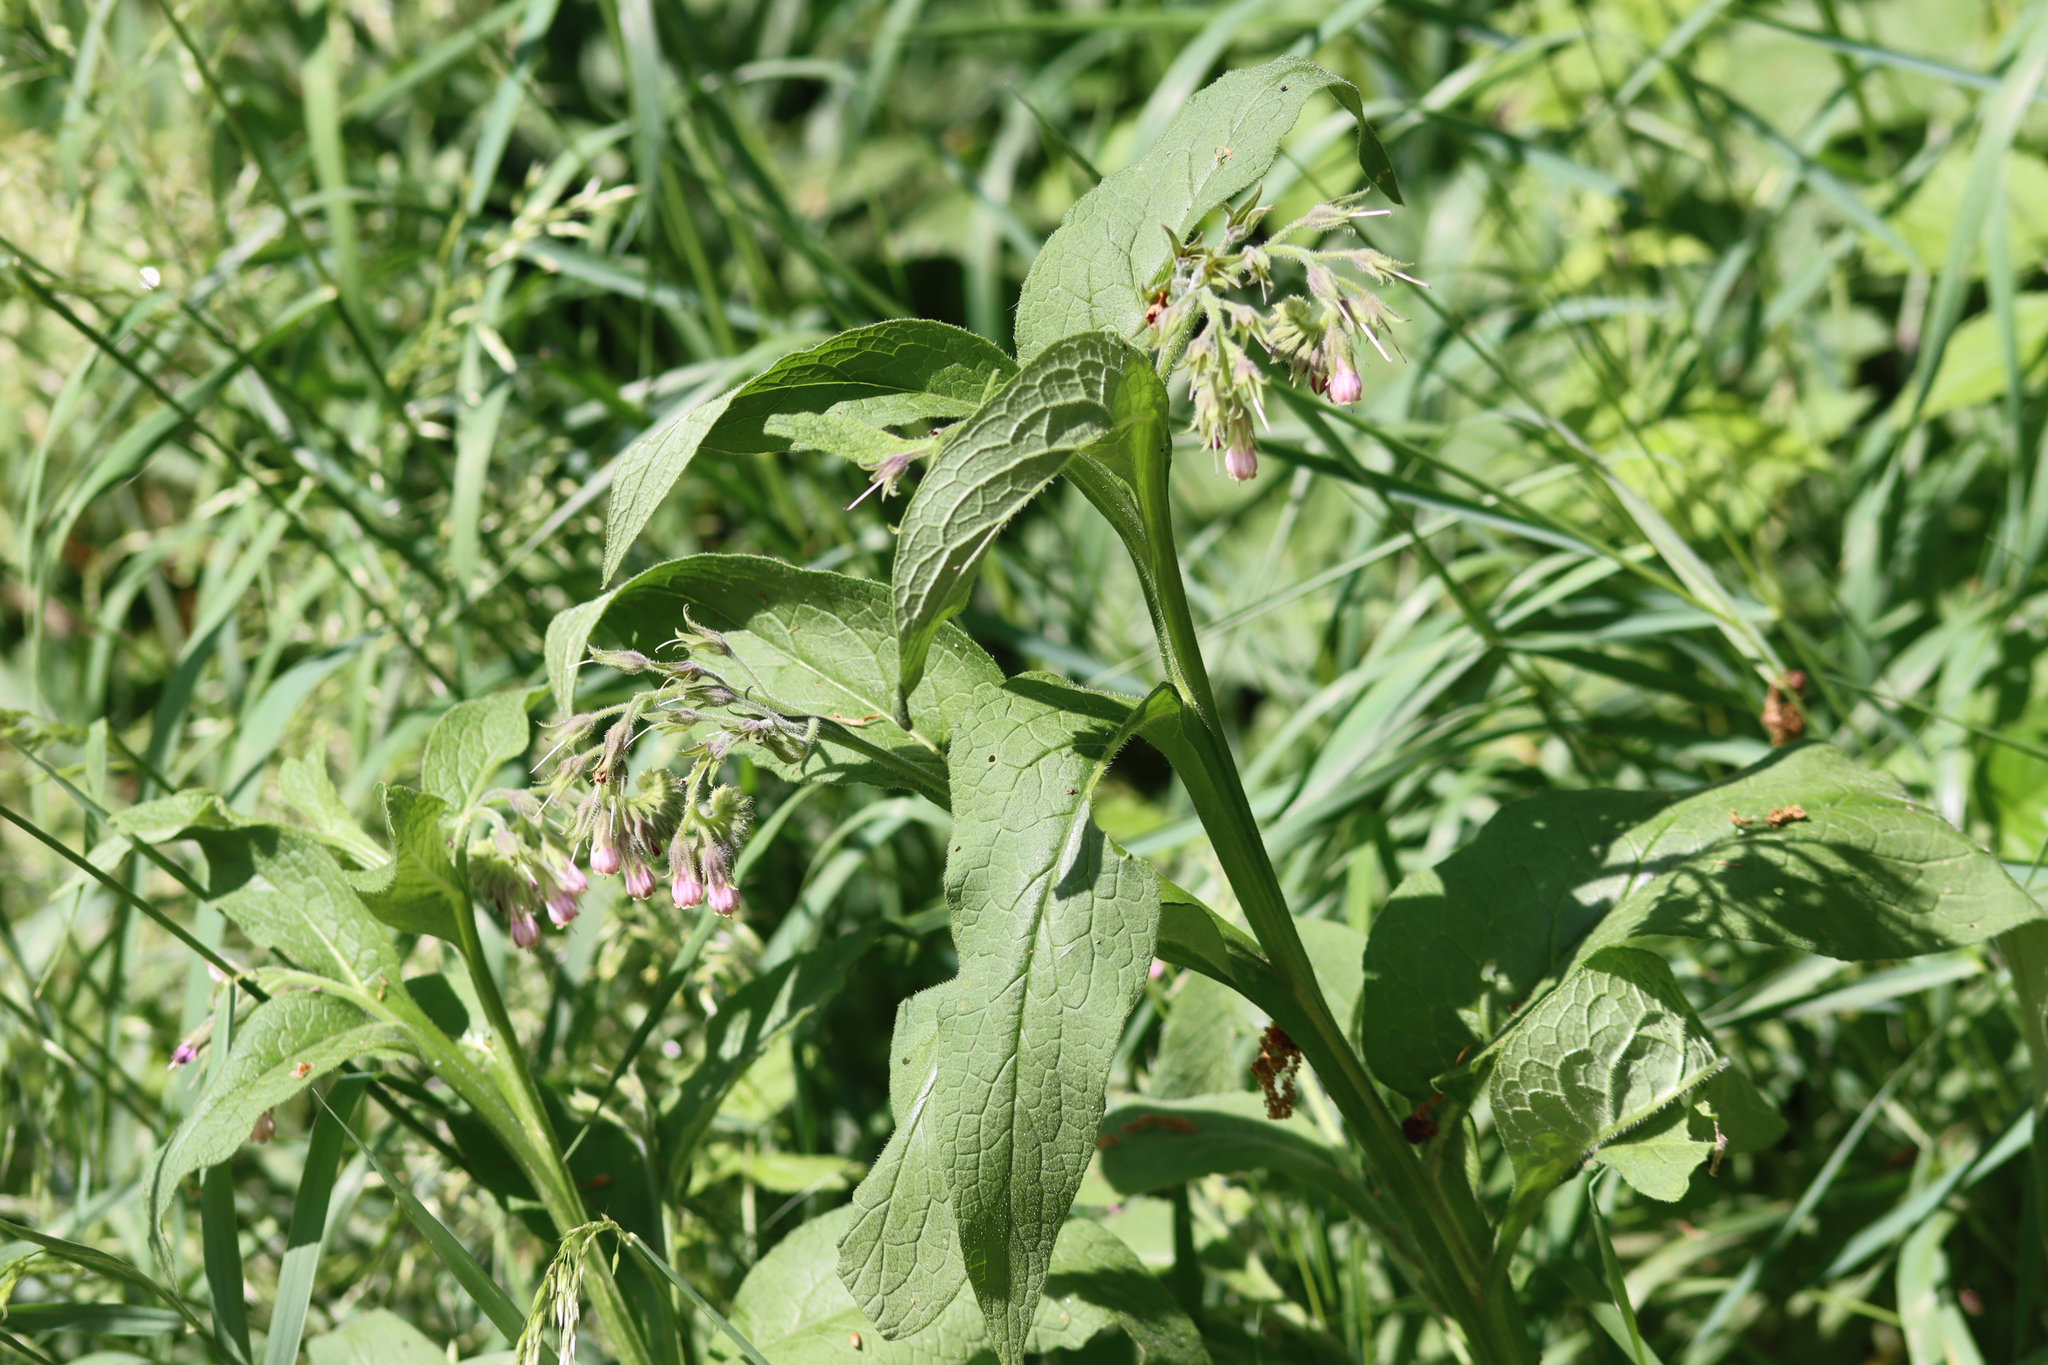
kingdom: Plantae
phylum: Tracheophyta
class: Magnoliopsida
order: Boraginales
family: Boraginaceae
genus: Symphytum
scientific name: Symphytum officinale
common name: Common comfrey
